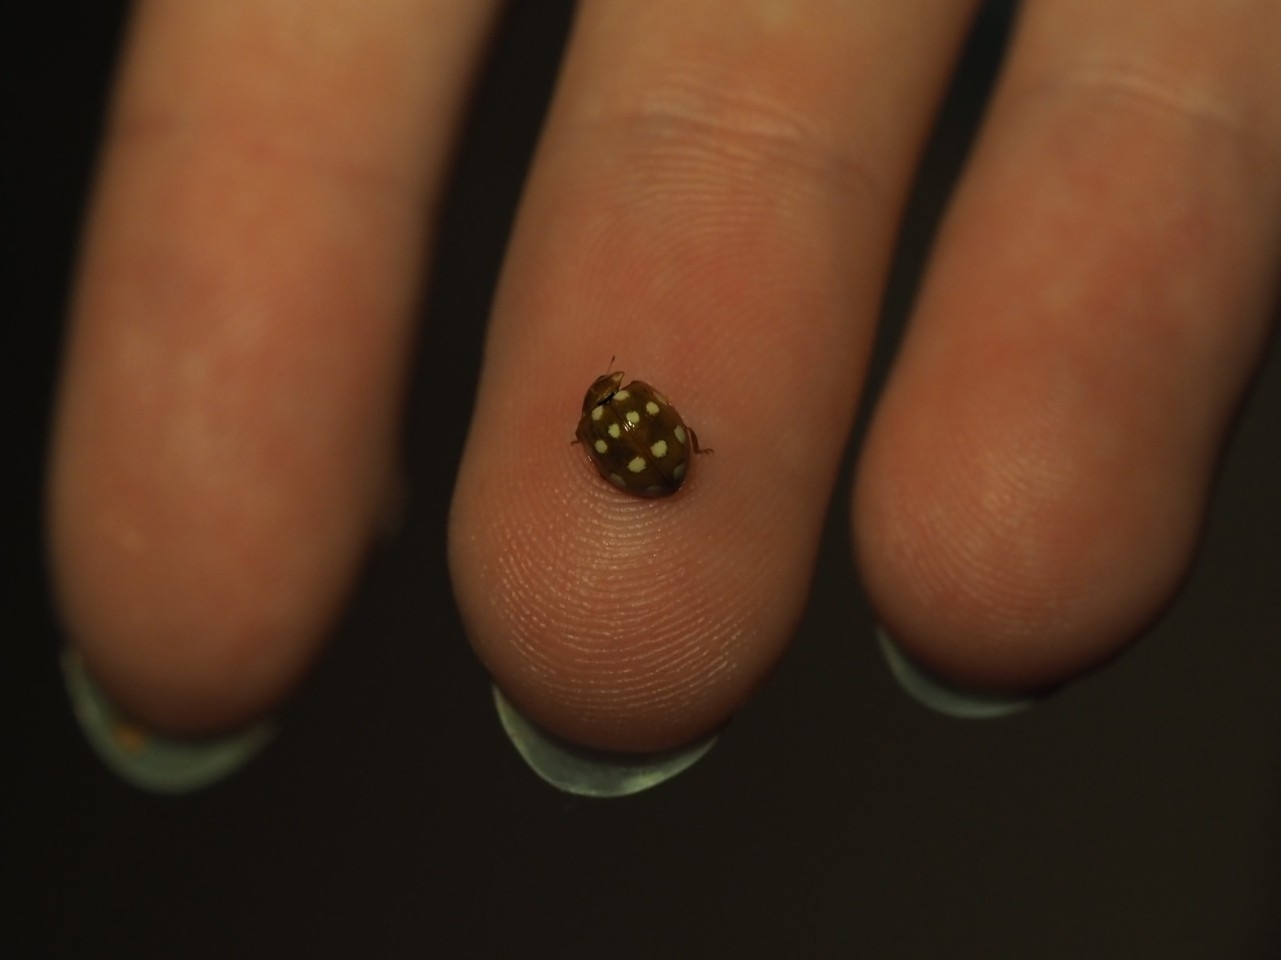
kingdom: Animalia
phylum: Arthropoda
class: Insecta
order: Coleoptera
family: Coccinellidae
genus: Calvia
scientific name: Calvia quatuordecimguttata
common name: Cream-spot ladybird
